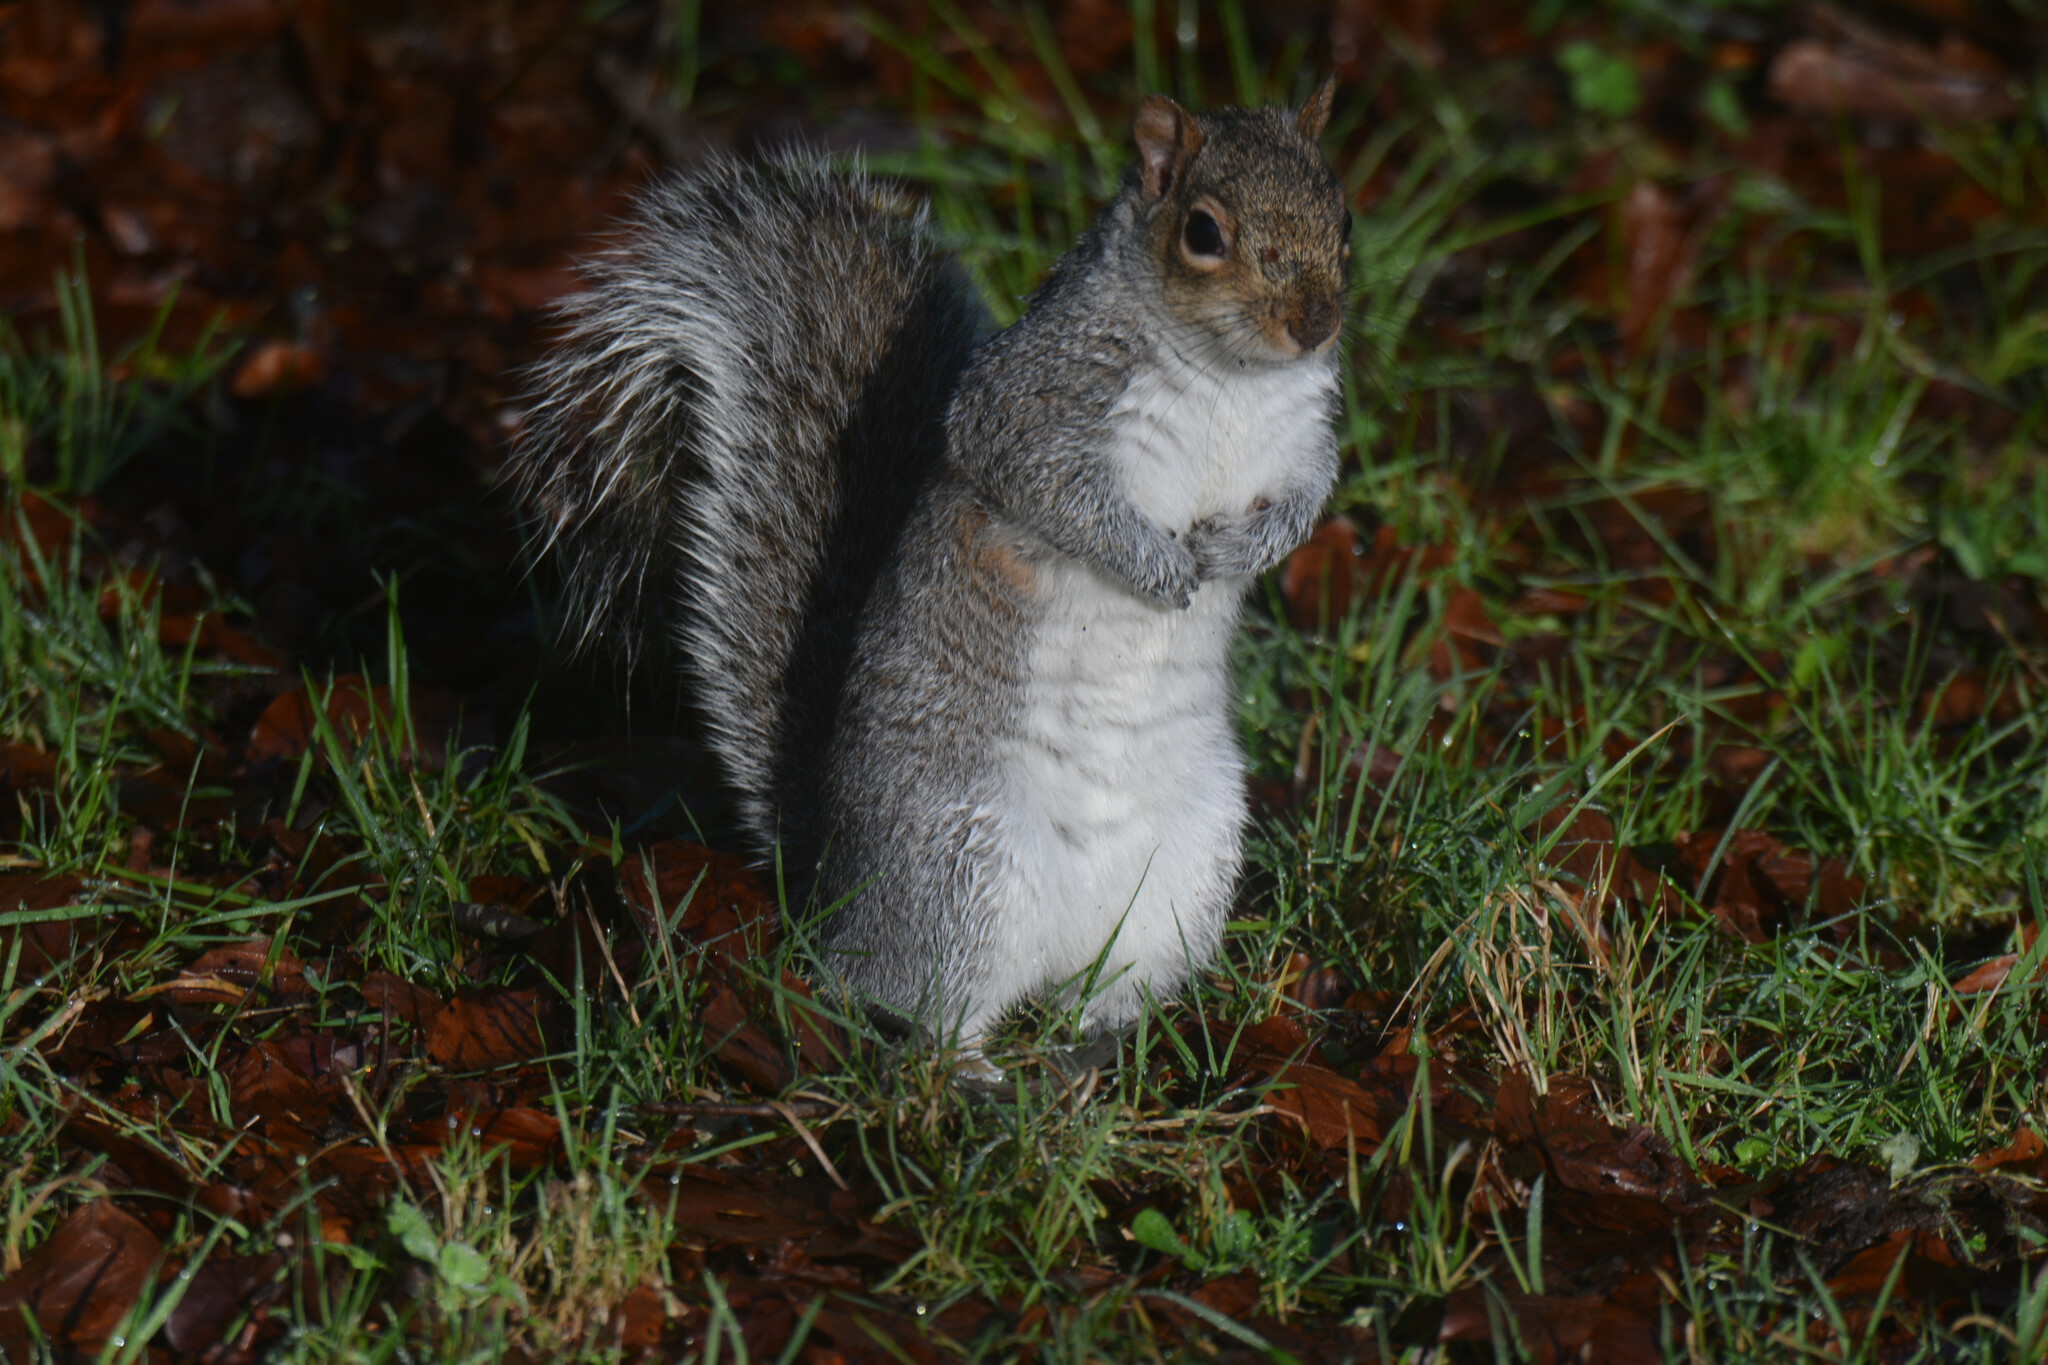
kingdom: Animalia
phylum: Chordata
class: Mammalia
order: Rodentia
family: Sciuridae
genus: Sciurus
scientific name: Sciurus carolinensis
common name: Eastern gray squirrel
